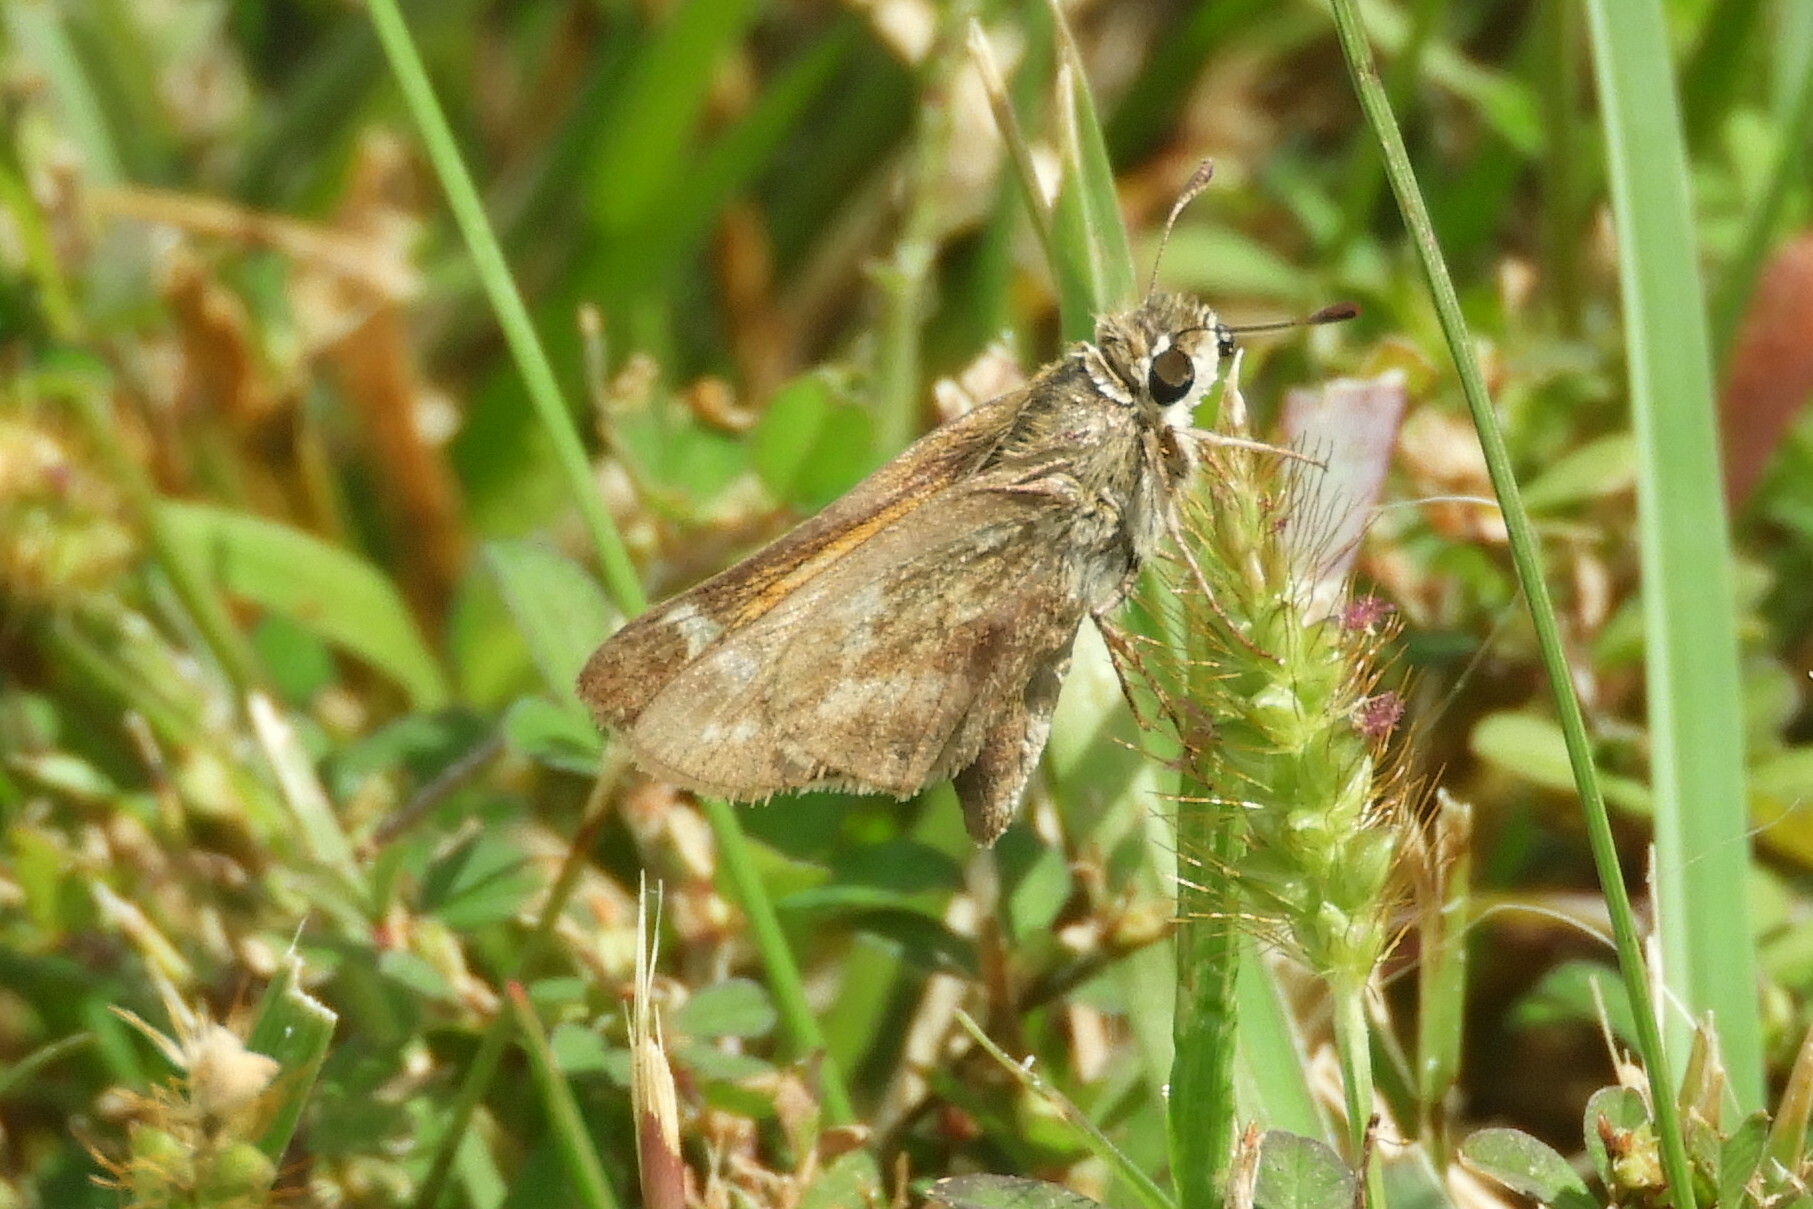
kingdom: Animalia
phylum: Arthropoda
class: Insecta
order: Lepidoptera
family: Hesperiidae
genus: Atalopedes
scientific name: Atalopedes
